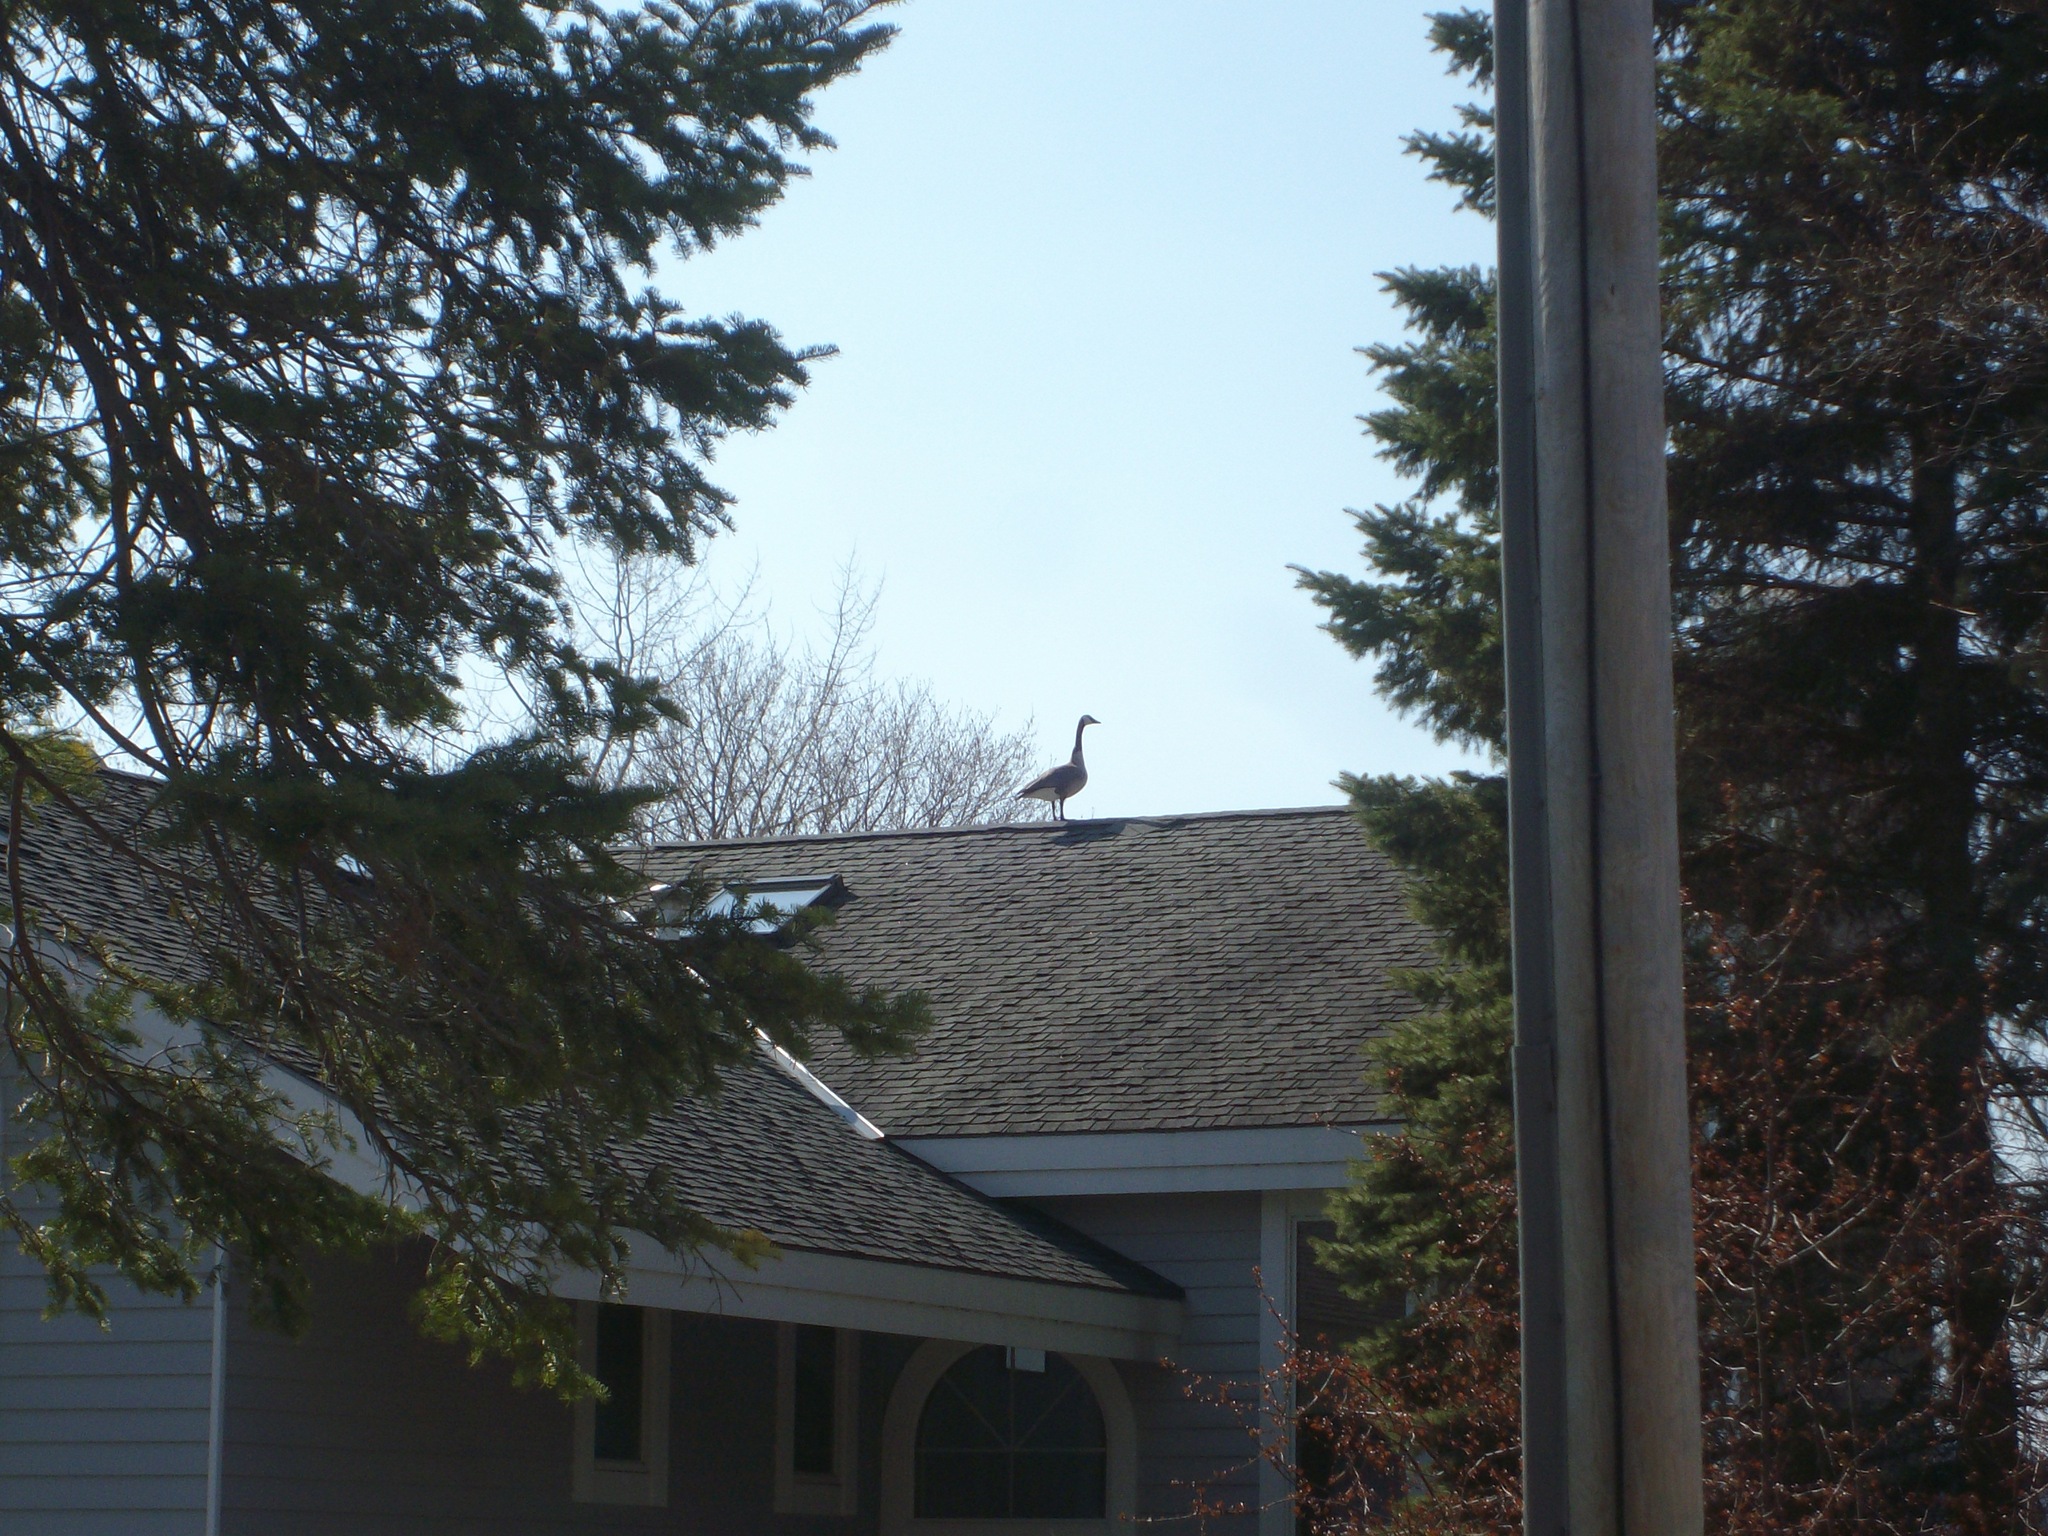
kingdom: Animalia
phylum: Chordata
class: Aves
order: Anseriformes
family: Anatidae
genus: Branta
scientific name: Branta canadensis
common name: Canada goose
